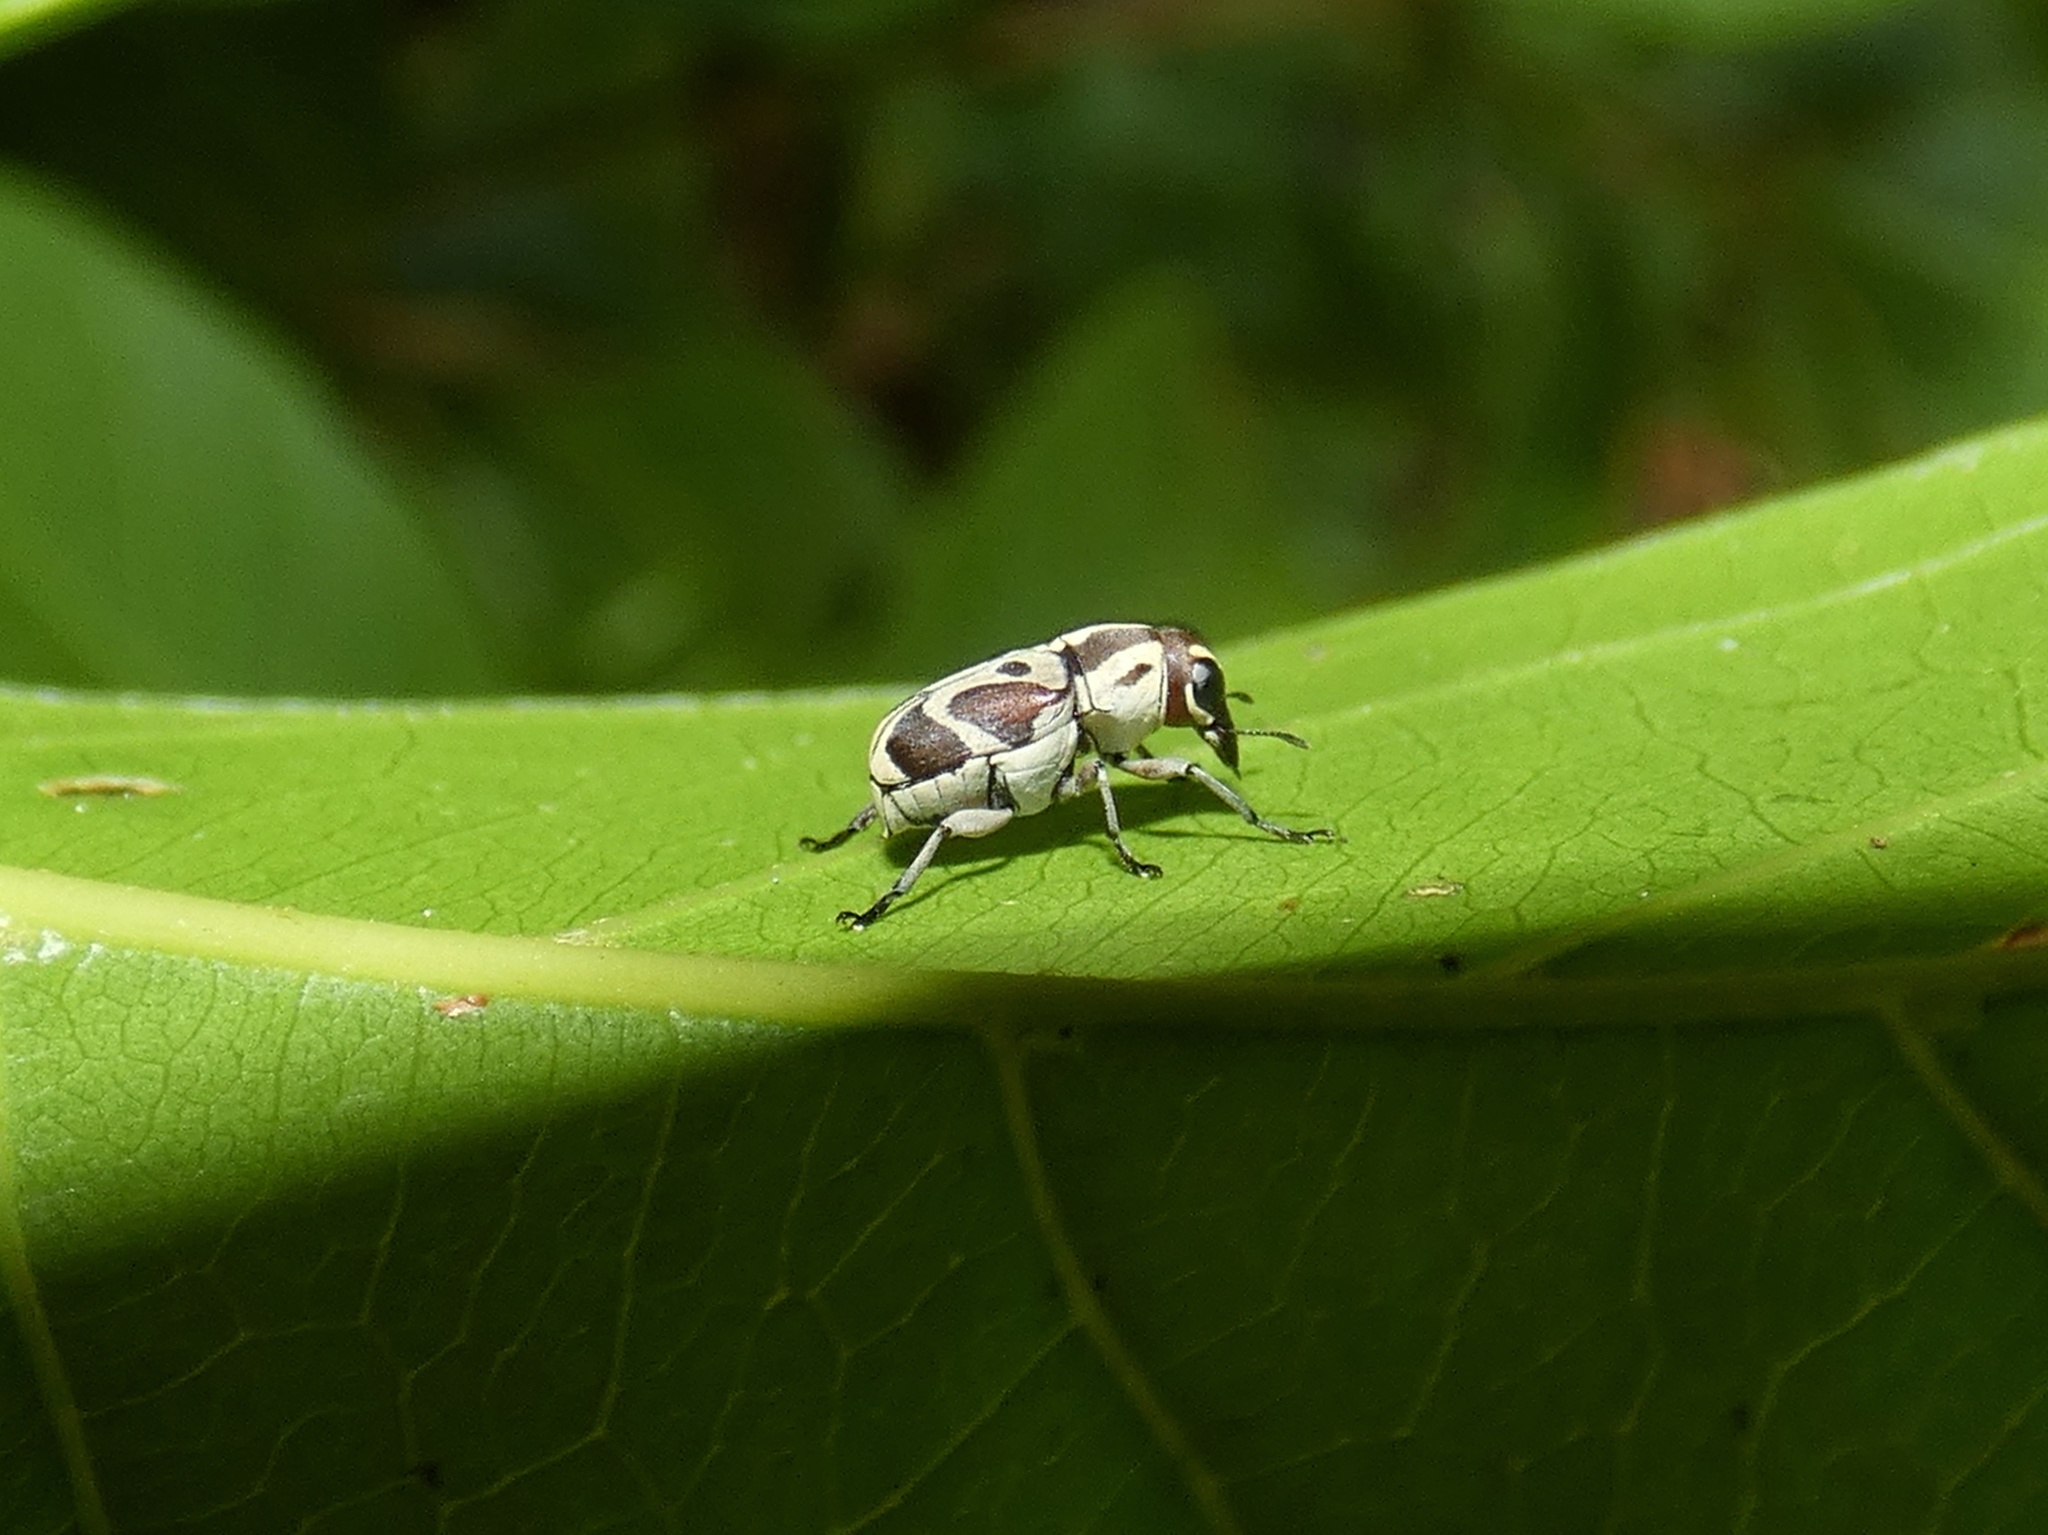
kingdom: Animalia
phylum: Arthropoda
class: Insecta
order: Coleoptera
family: Anthribidae
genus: Gymnognathus
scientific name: Gymnognathus thecla
